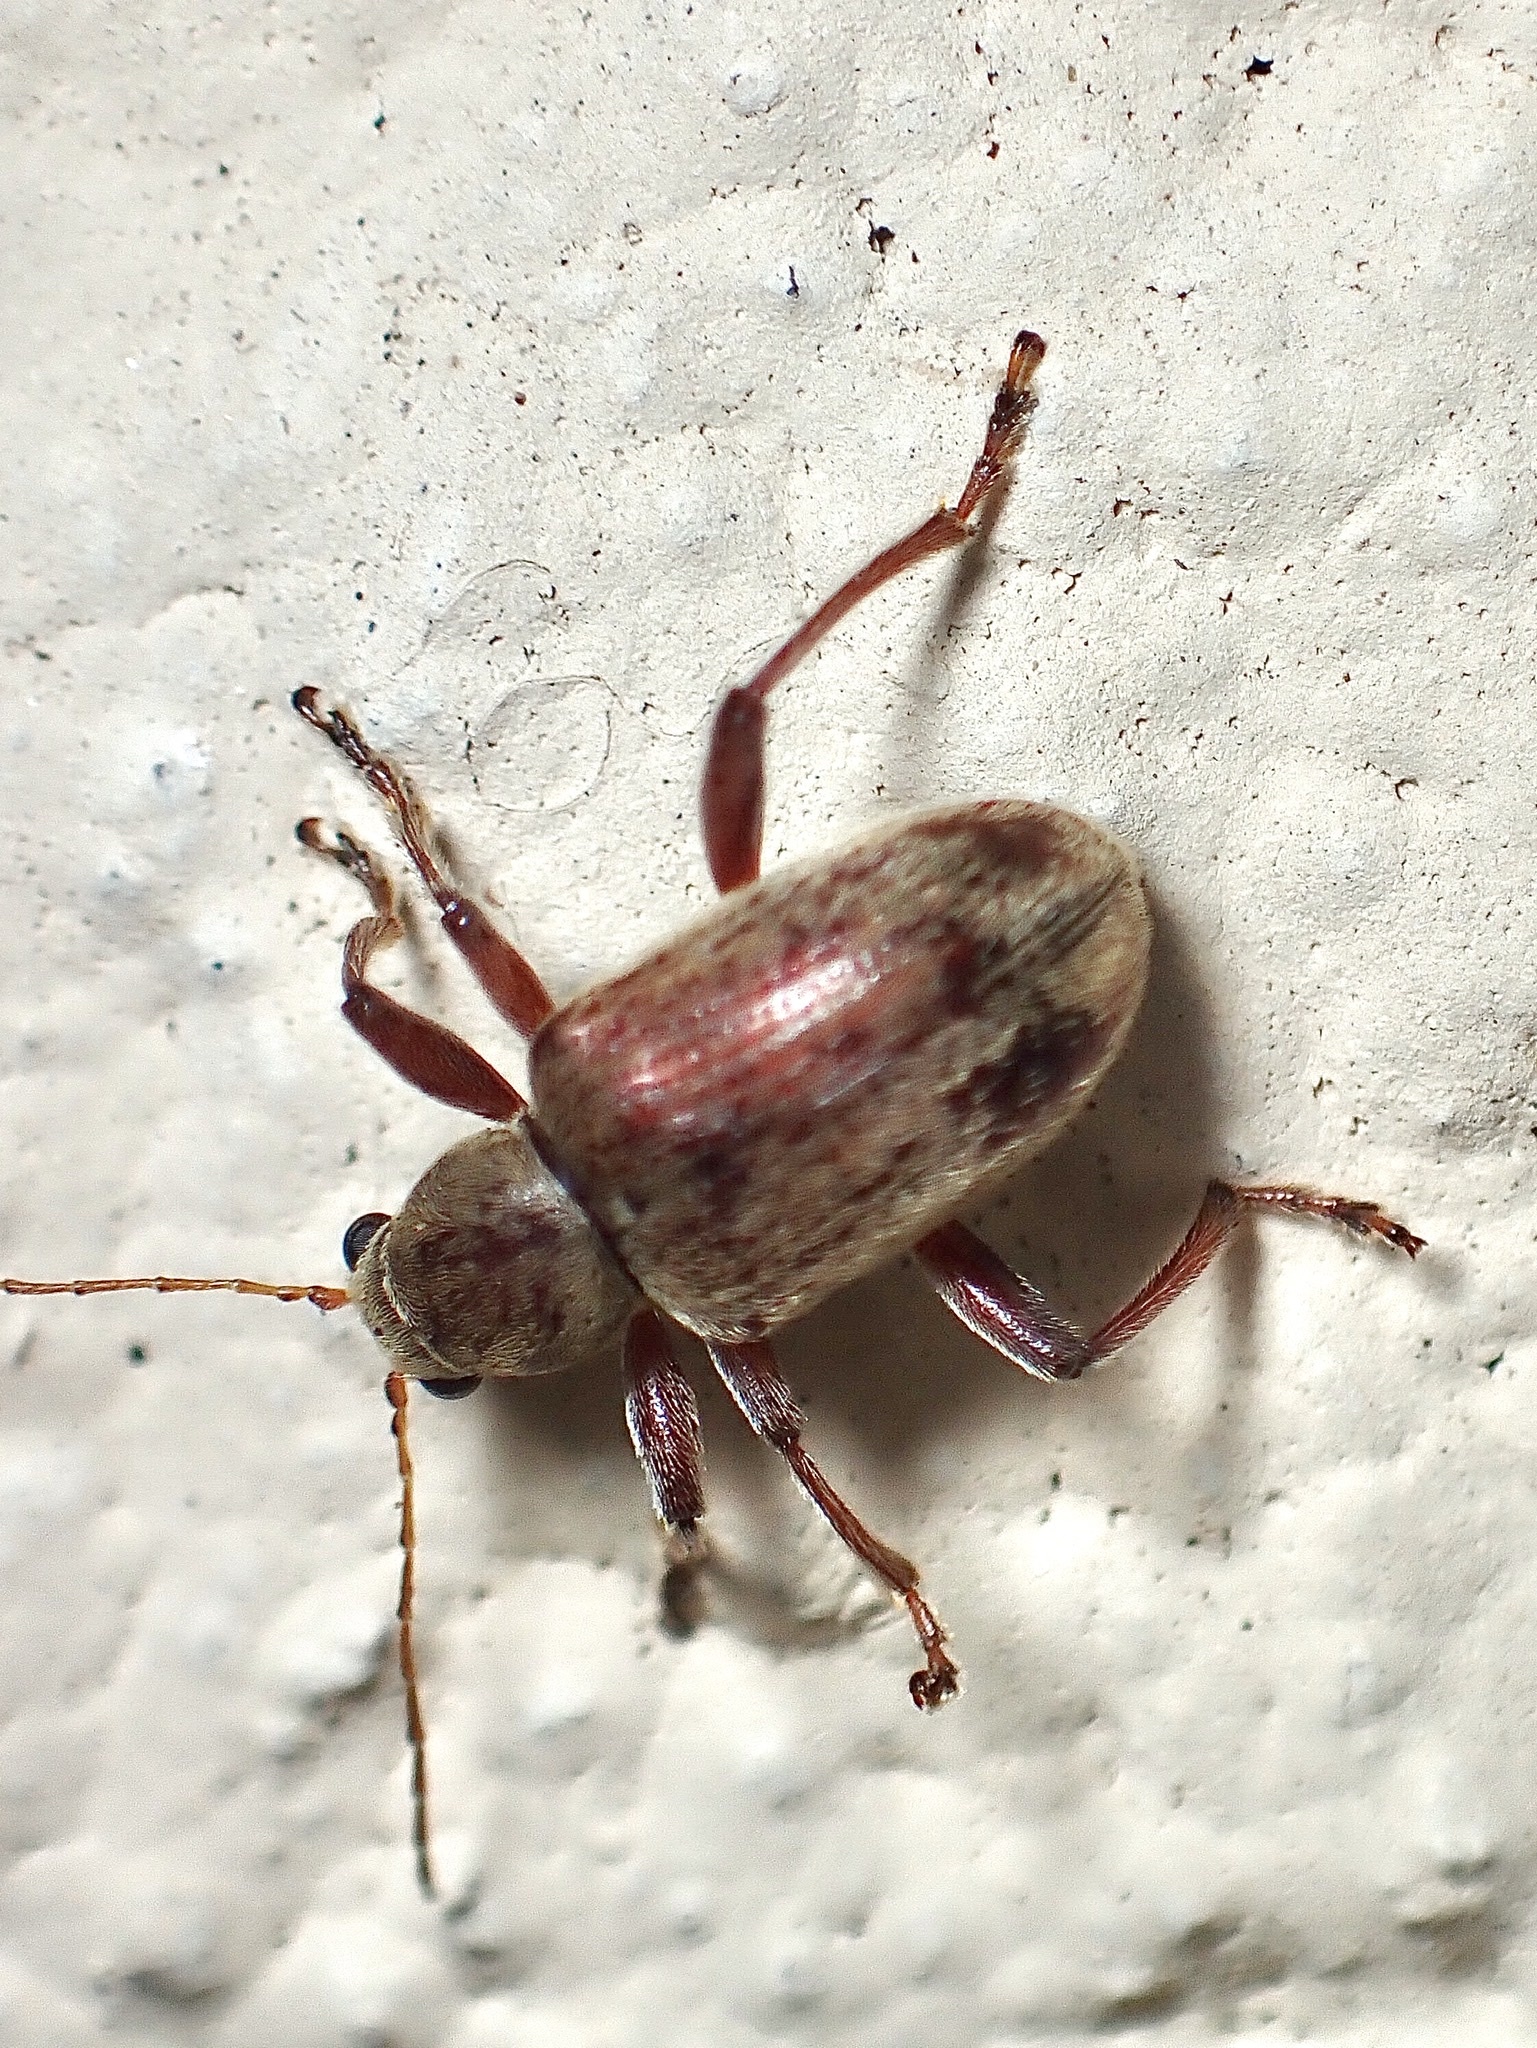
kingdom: Animalia
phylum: Arthropoda
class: Insecta
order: Coleoptera
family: Chrysomelidae
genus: Neofidia
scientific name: Neofidia
